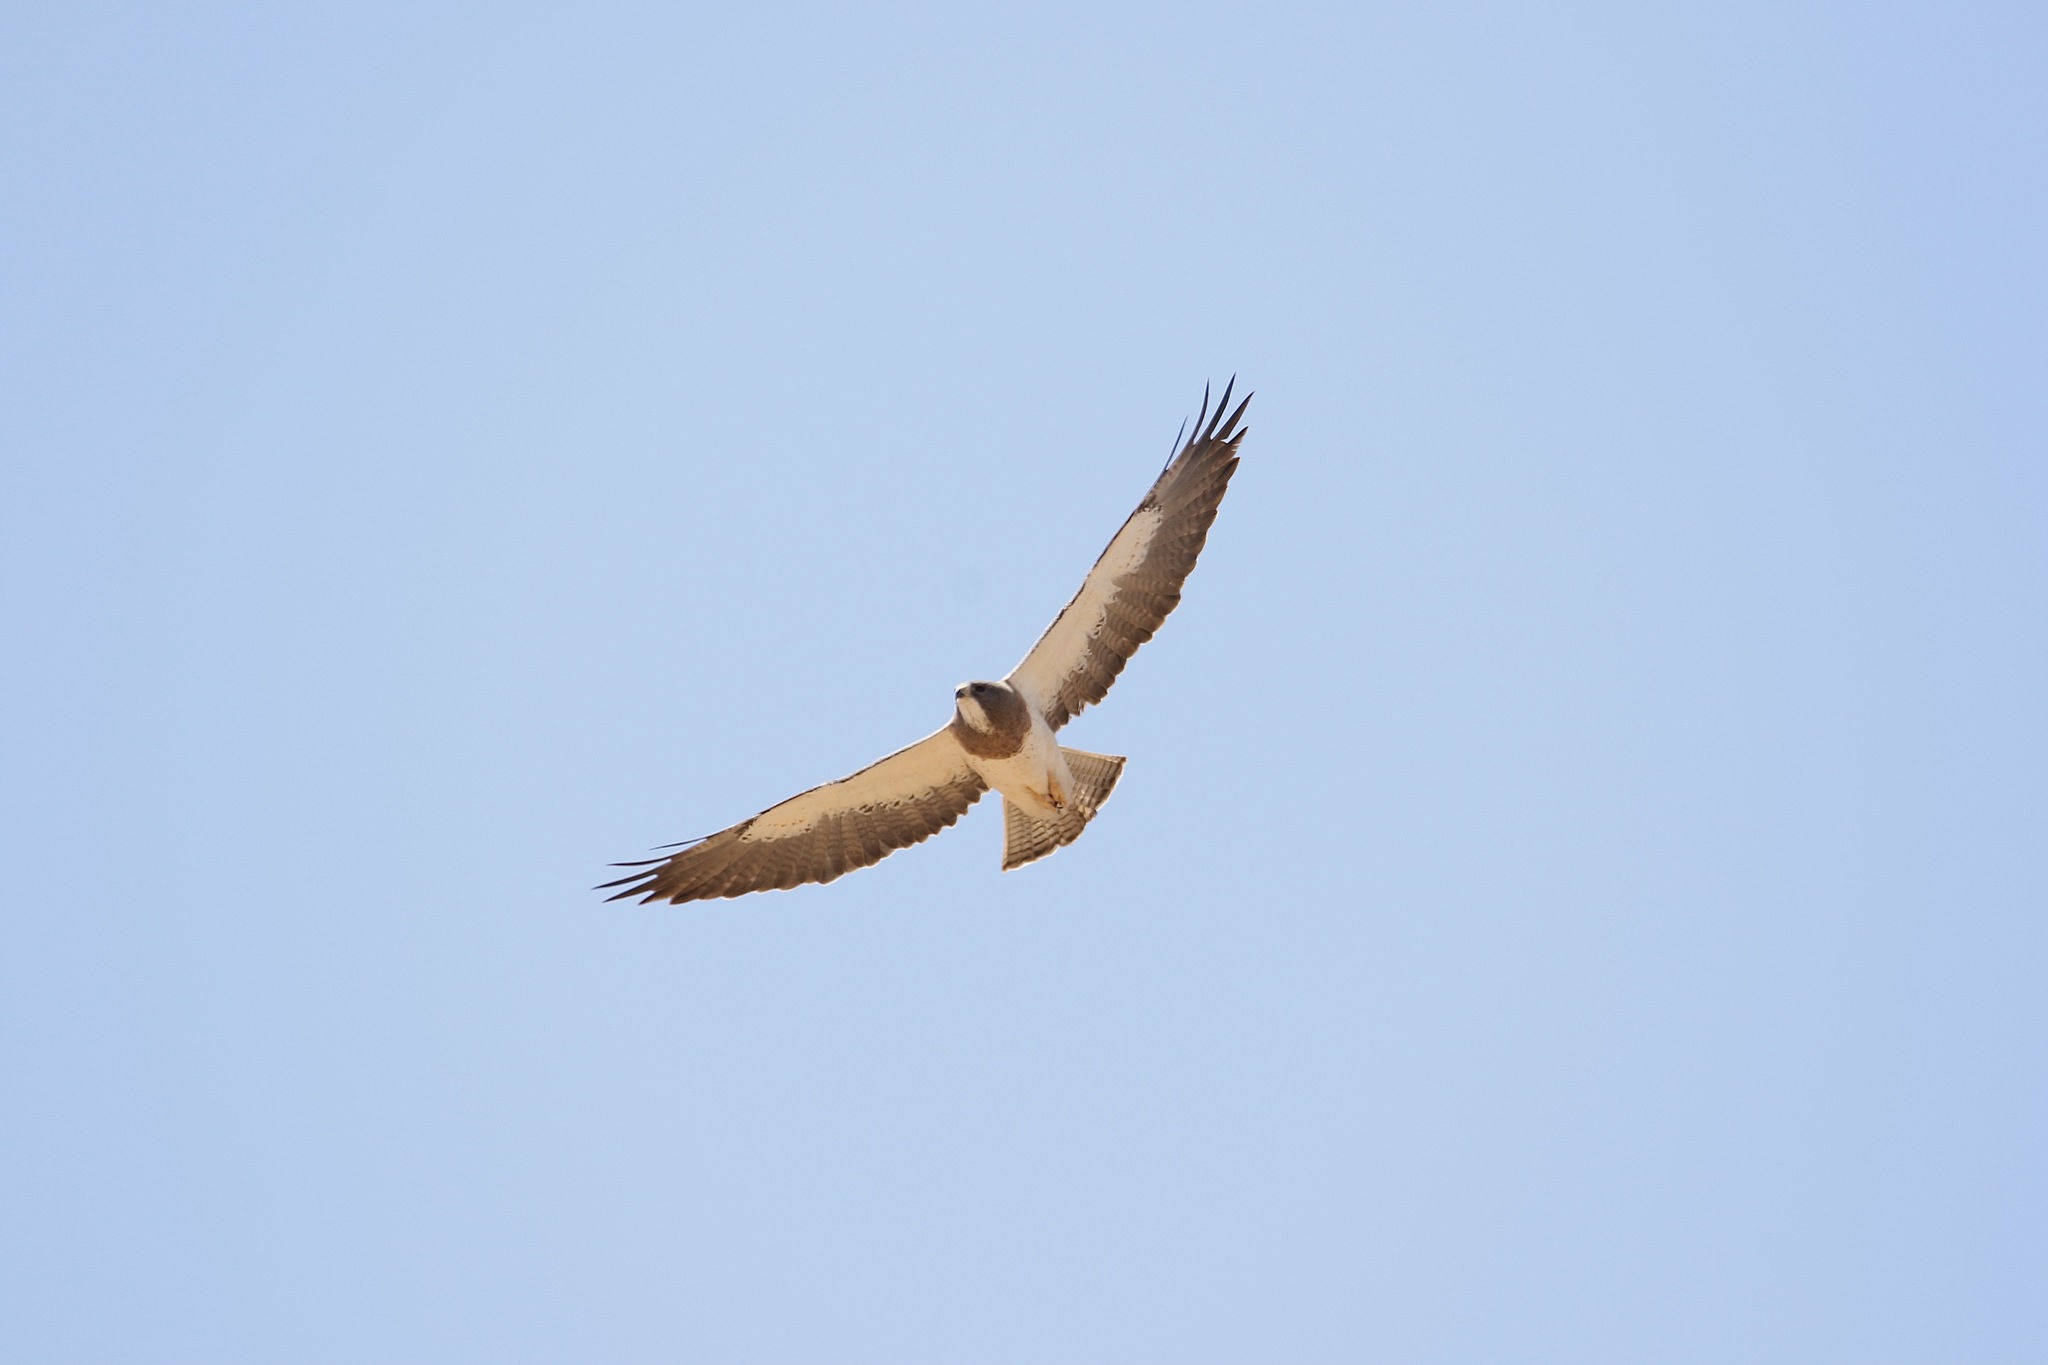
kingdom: Animalia
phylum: Chordata
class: Aves
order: Accipitriformes
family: Accipitridae
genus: Buteo
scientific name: Buteo swainsoni
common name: Swainson's hawk
